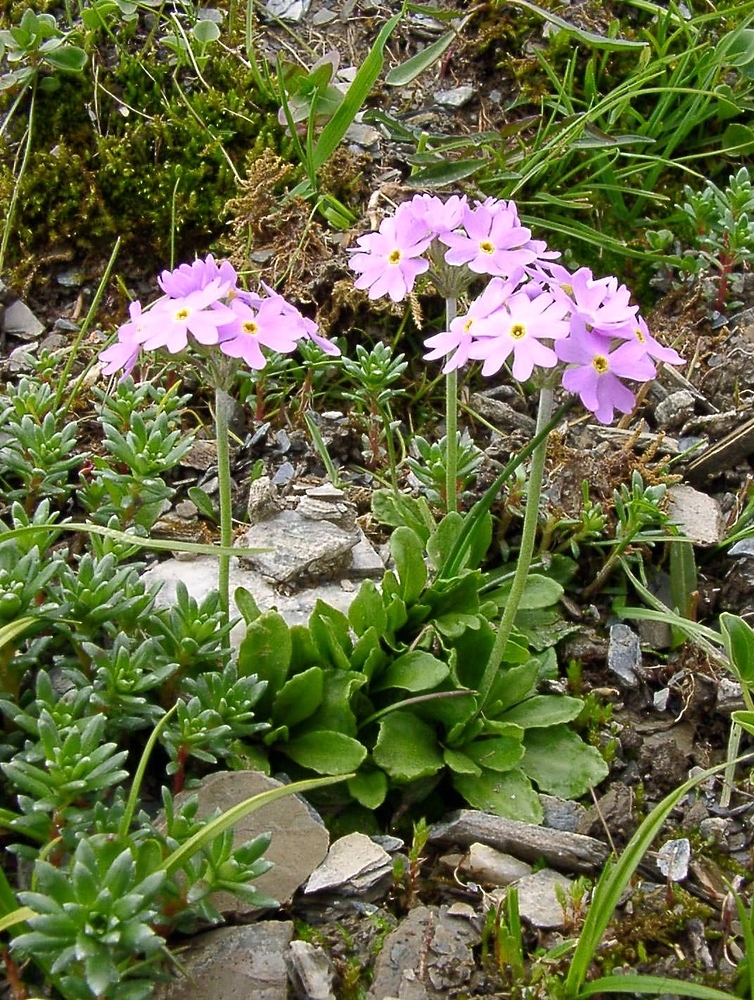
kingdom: Plantae
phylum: Tracheophyta
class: Magnoliopsida
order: Ericales
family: Primulaceae
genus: Primula
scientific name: Primula farinosa
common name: Bird's-eye primrose
